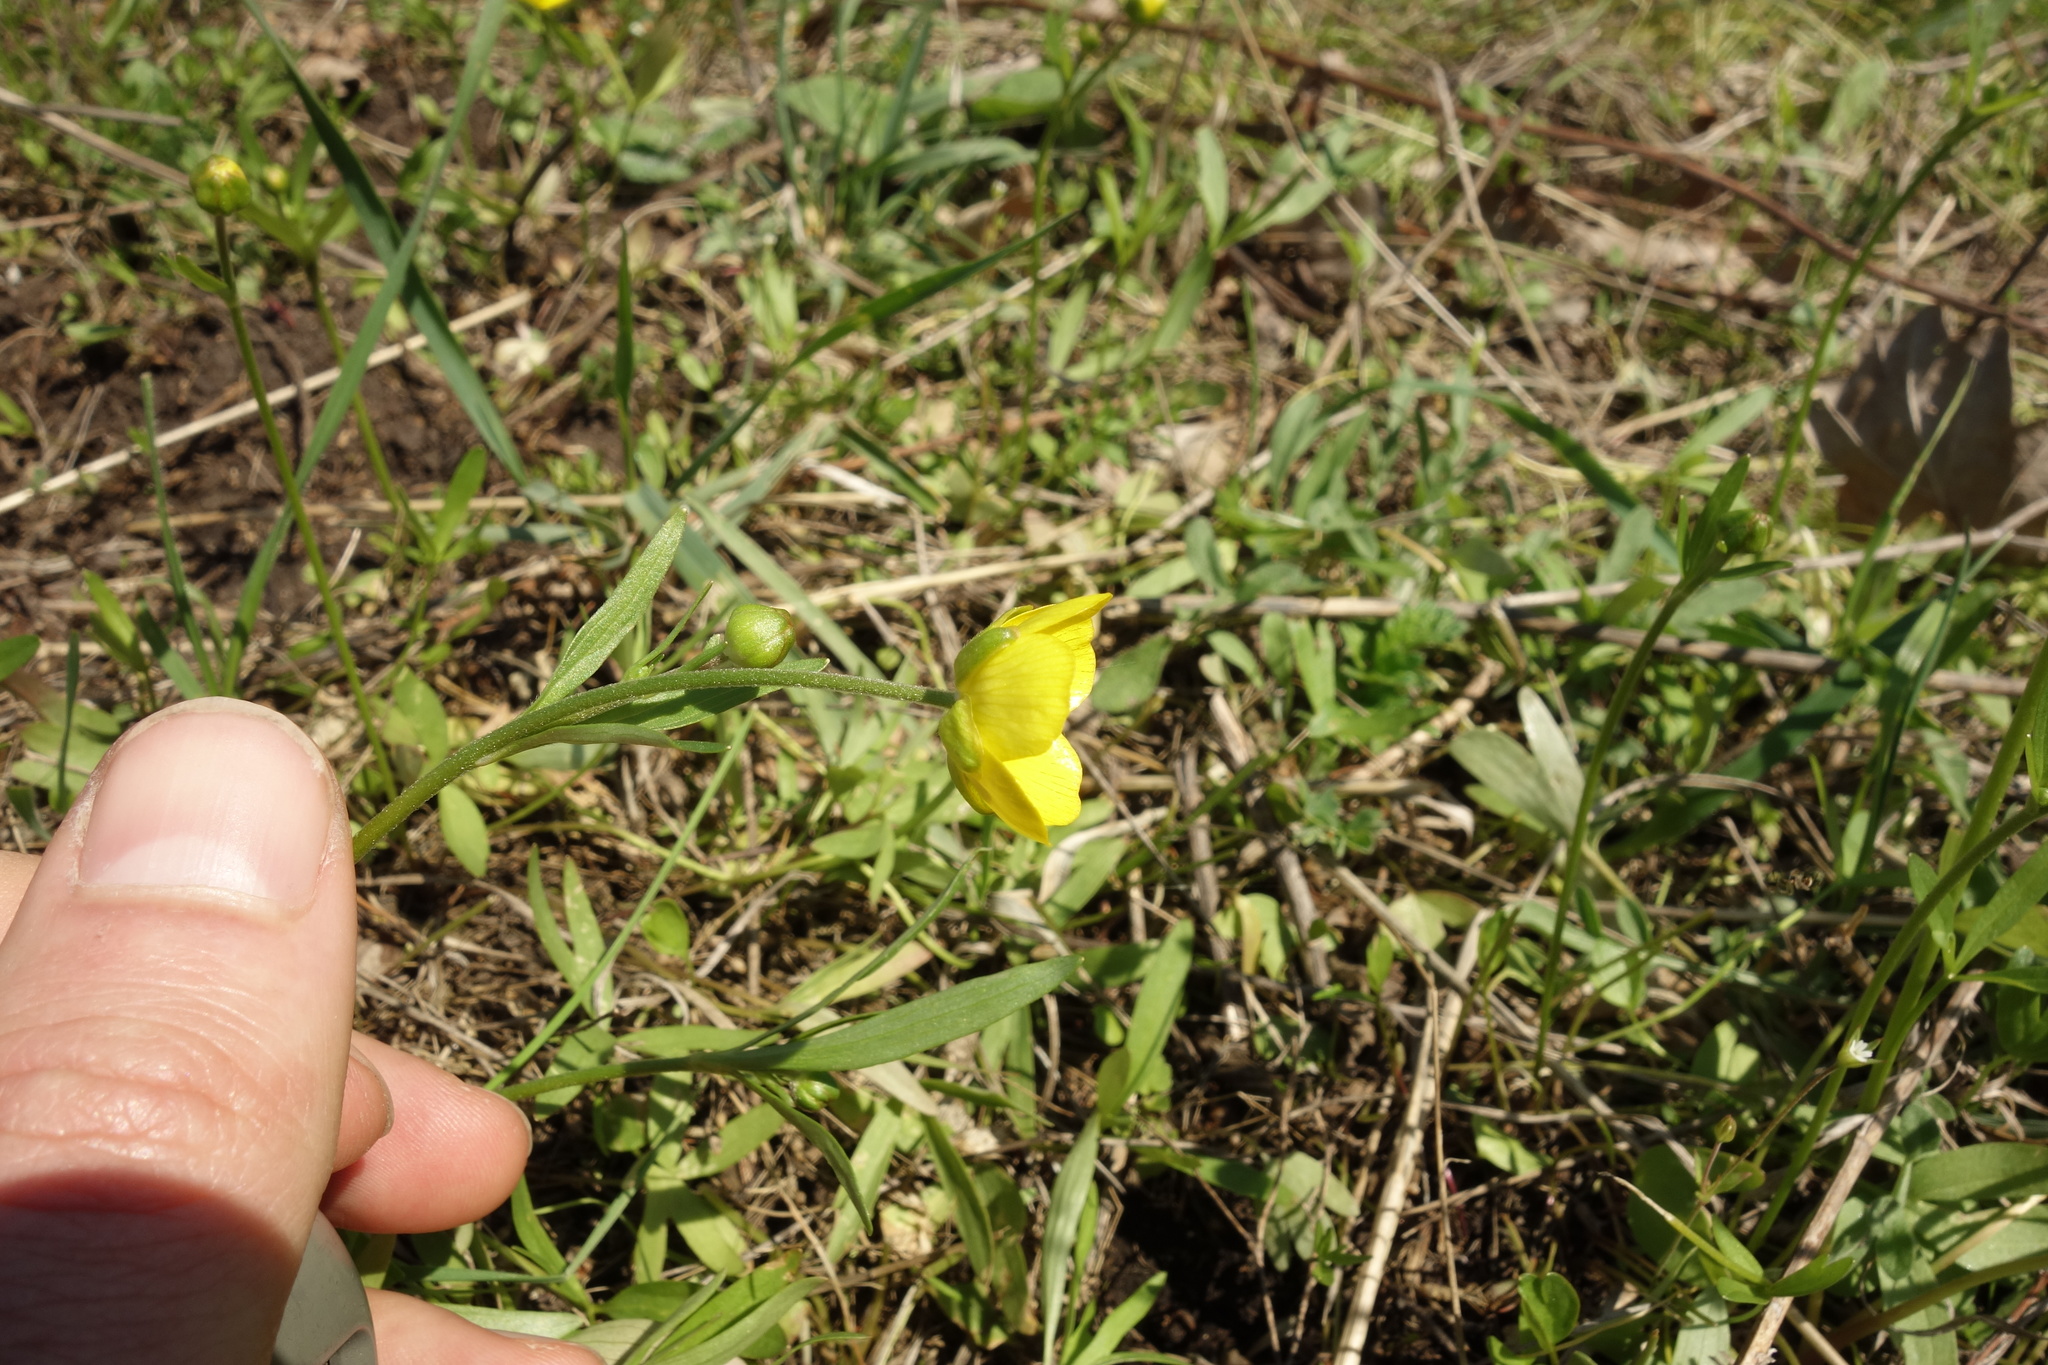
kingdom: Plantae
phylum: Tracheophyta
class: Magnoliopsida
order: Ranunculales
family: Ranunculaceae
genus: Ranunculus
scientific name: Ranunculus pedatus
